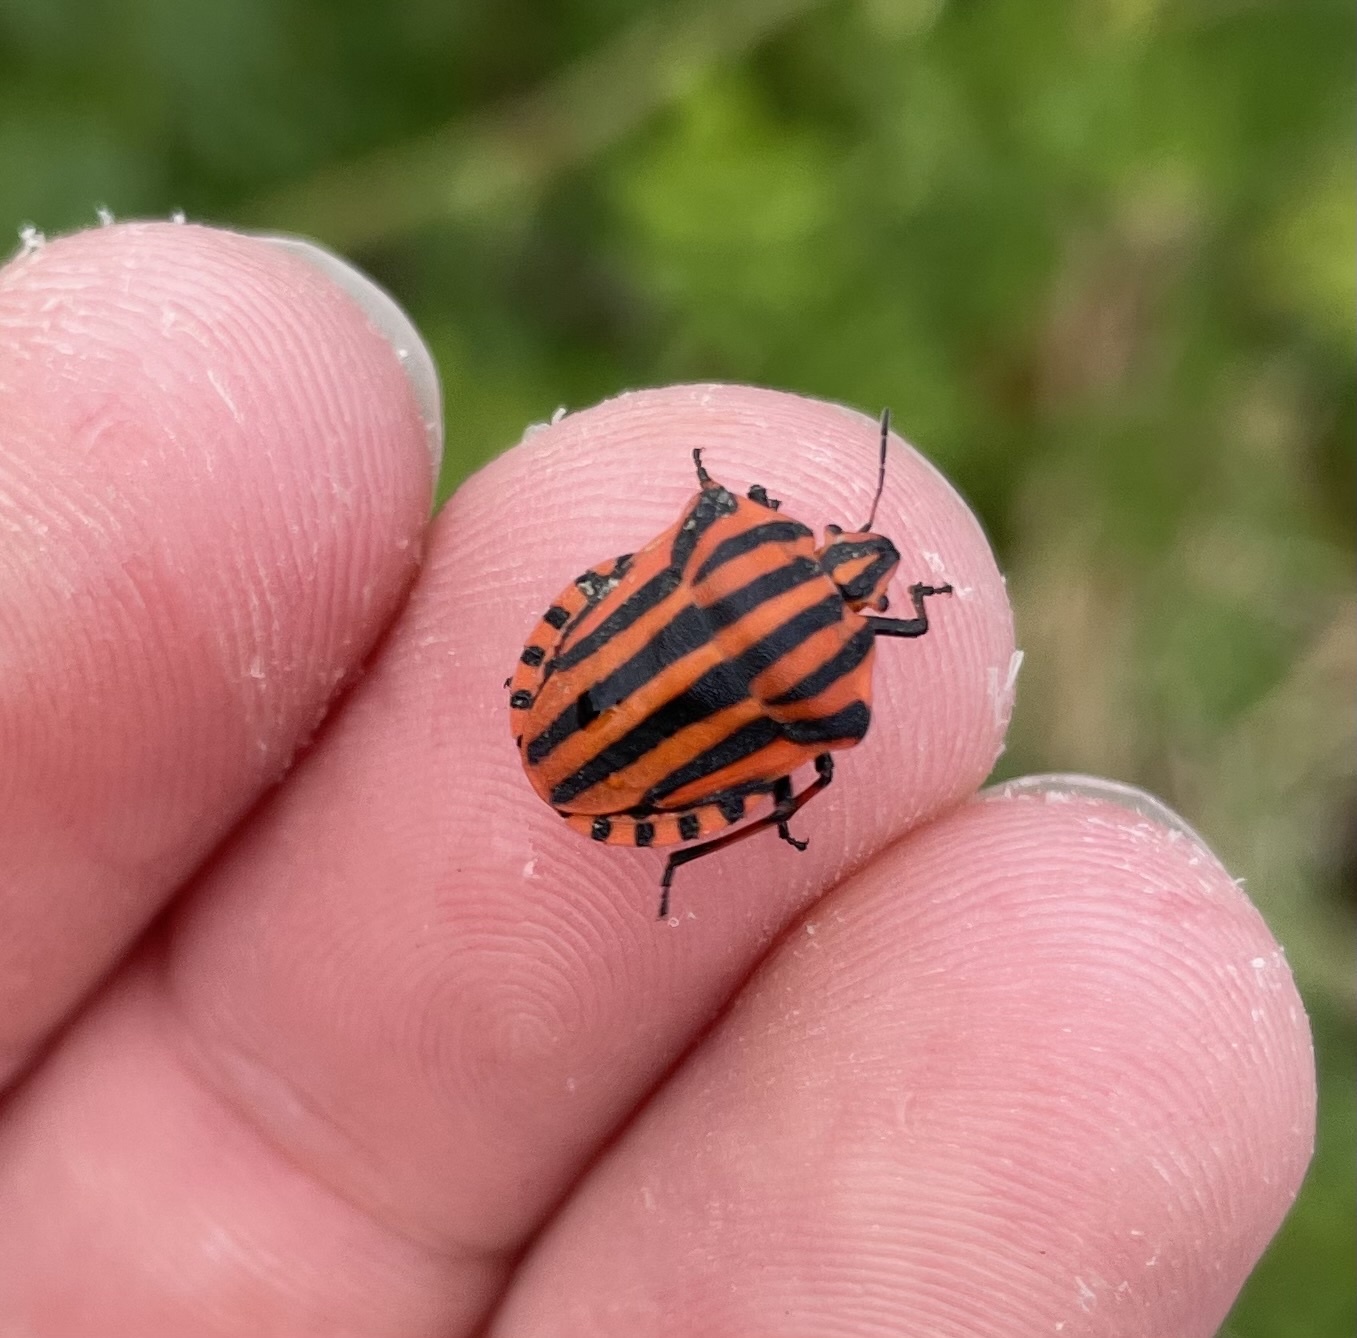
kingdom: Animalia
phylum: Arthropoda
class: Insecta
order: Hemiptera
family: Pentatomidae
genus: Graphosoma
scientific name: Graphosoma italicum
